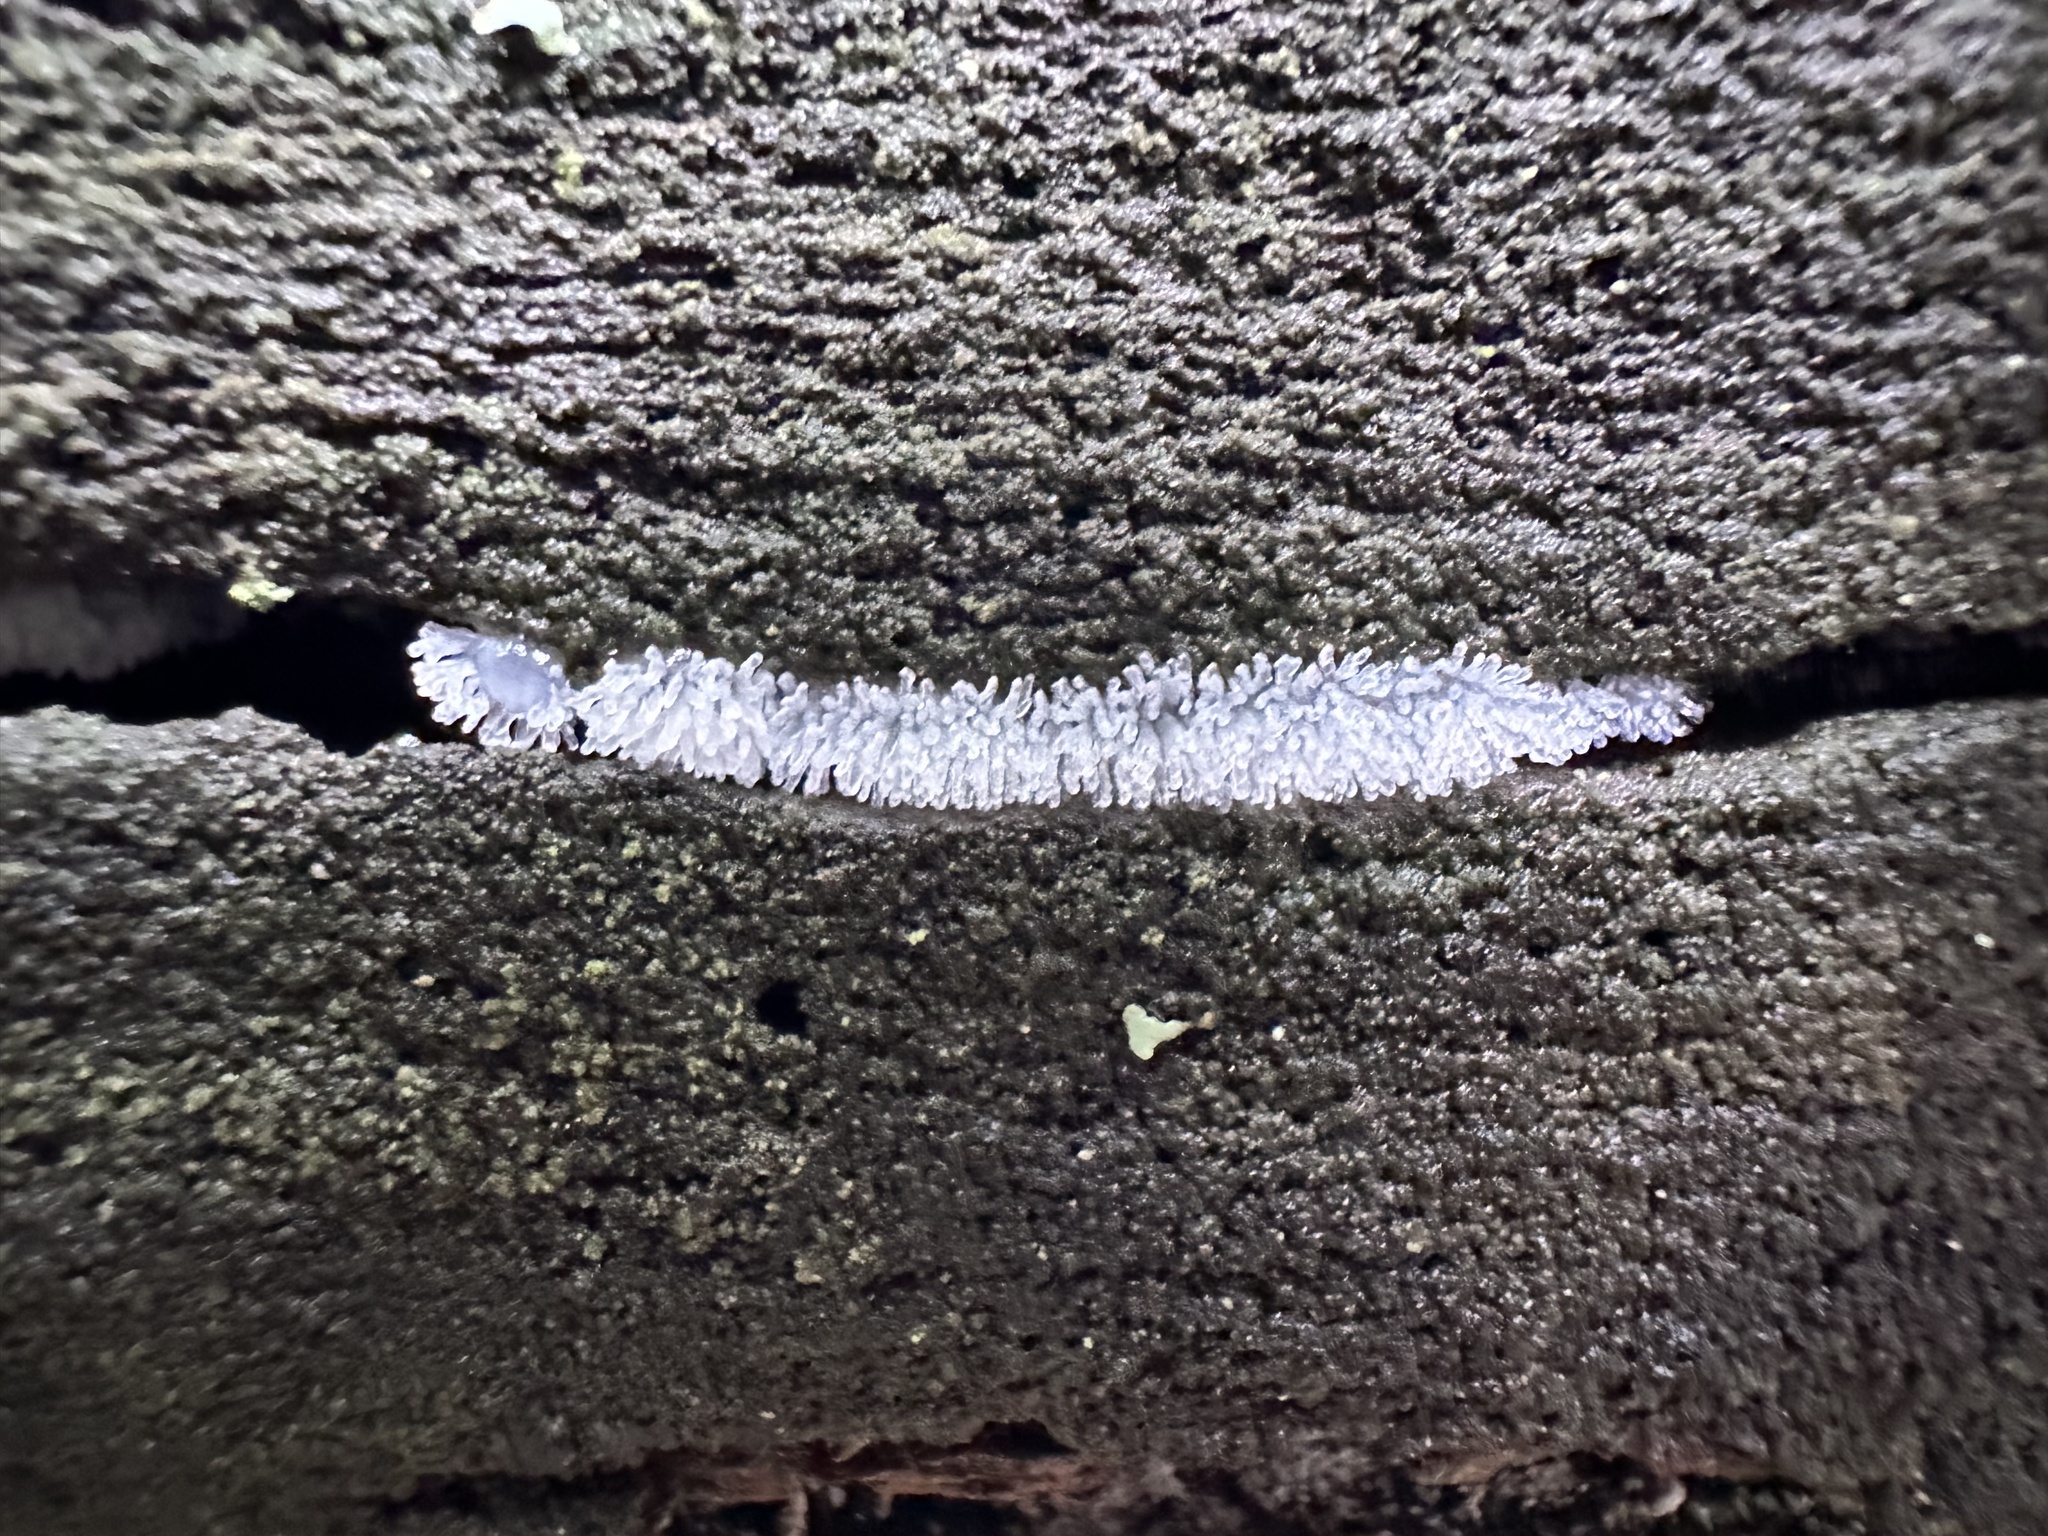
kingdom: Protozoa
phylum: Mycetozoa
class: Protosteliomycetes
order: Ceratiomyxales
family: Ceratiomyxaceae
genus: Ceratiomyxa
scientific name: Ceratiomyxa fruticulosa
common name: Honeycomb coral slime mold
